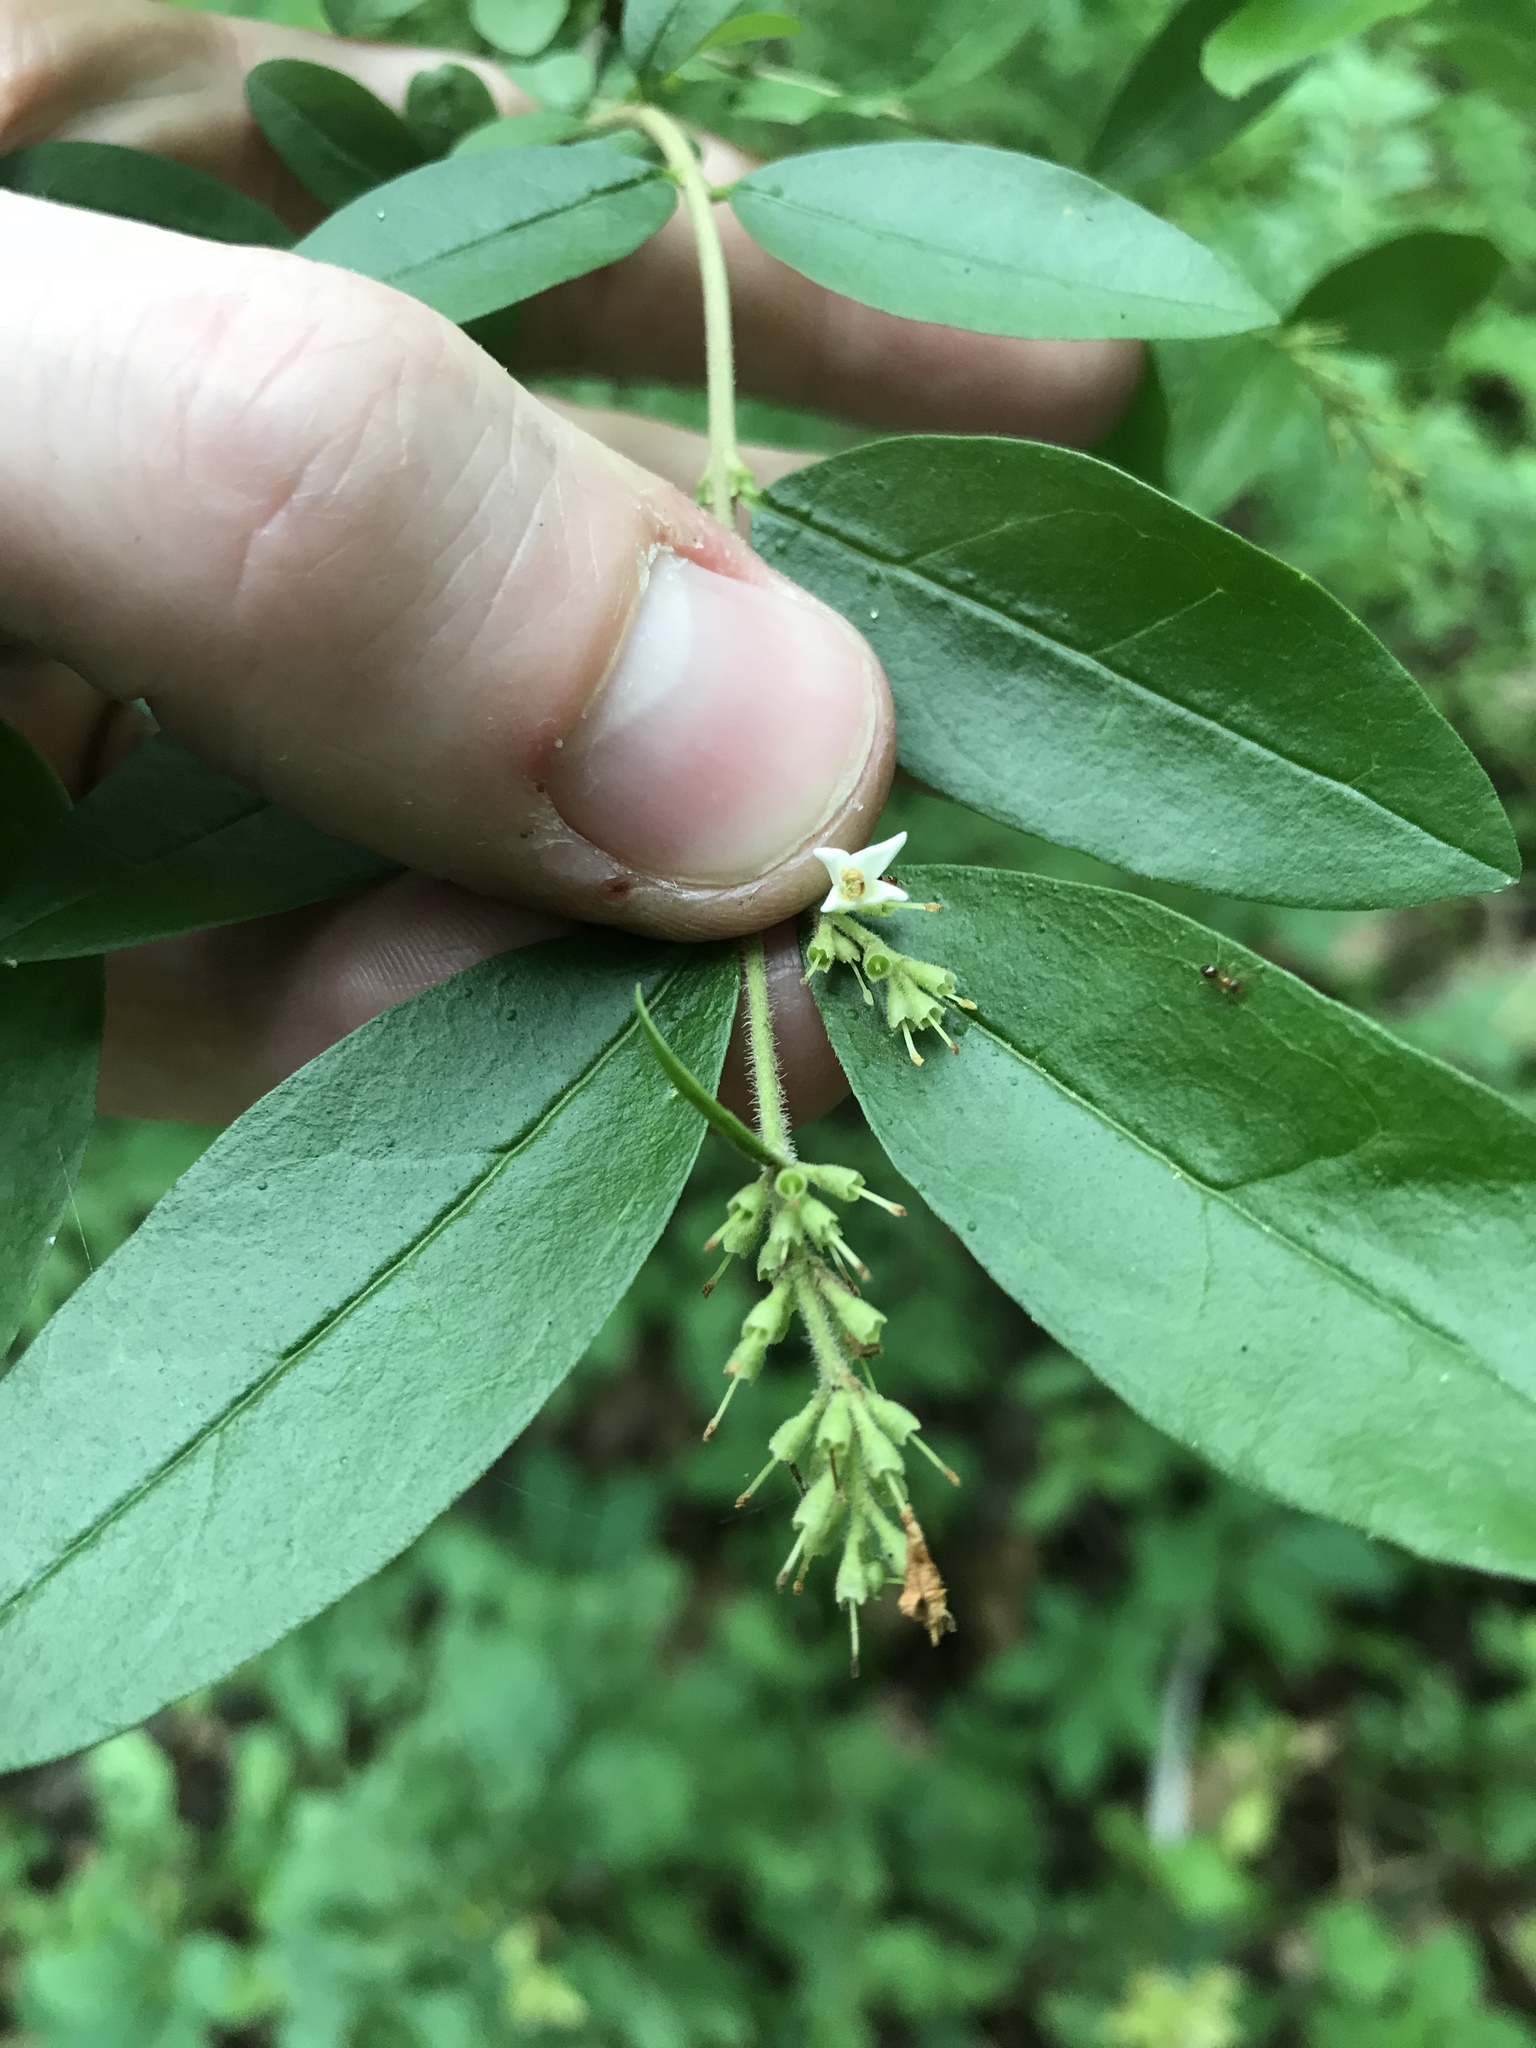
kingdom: Plantae
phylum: Tracheophyta
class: Magnoliopsida
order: Lamiales
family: Oleaceae
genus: Ligustrum
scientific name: Ligustrum obtusifolium
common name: Border privet
